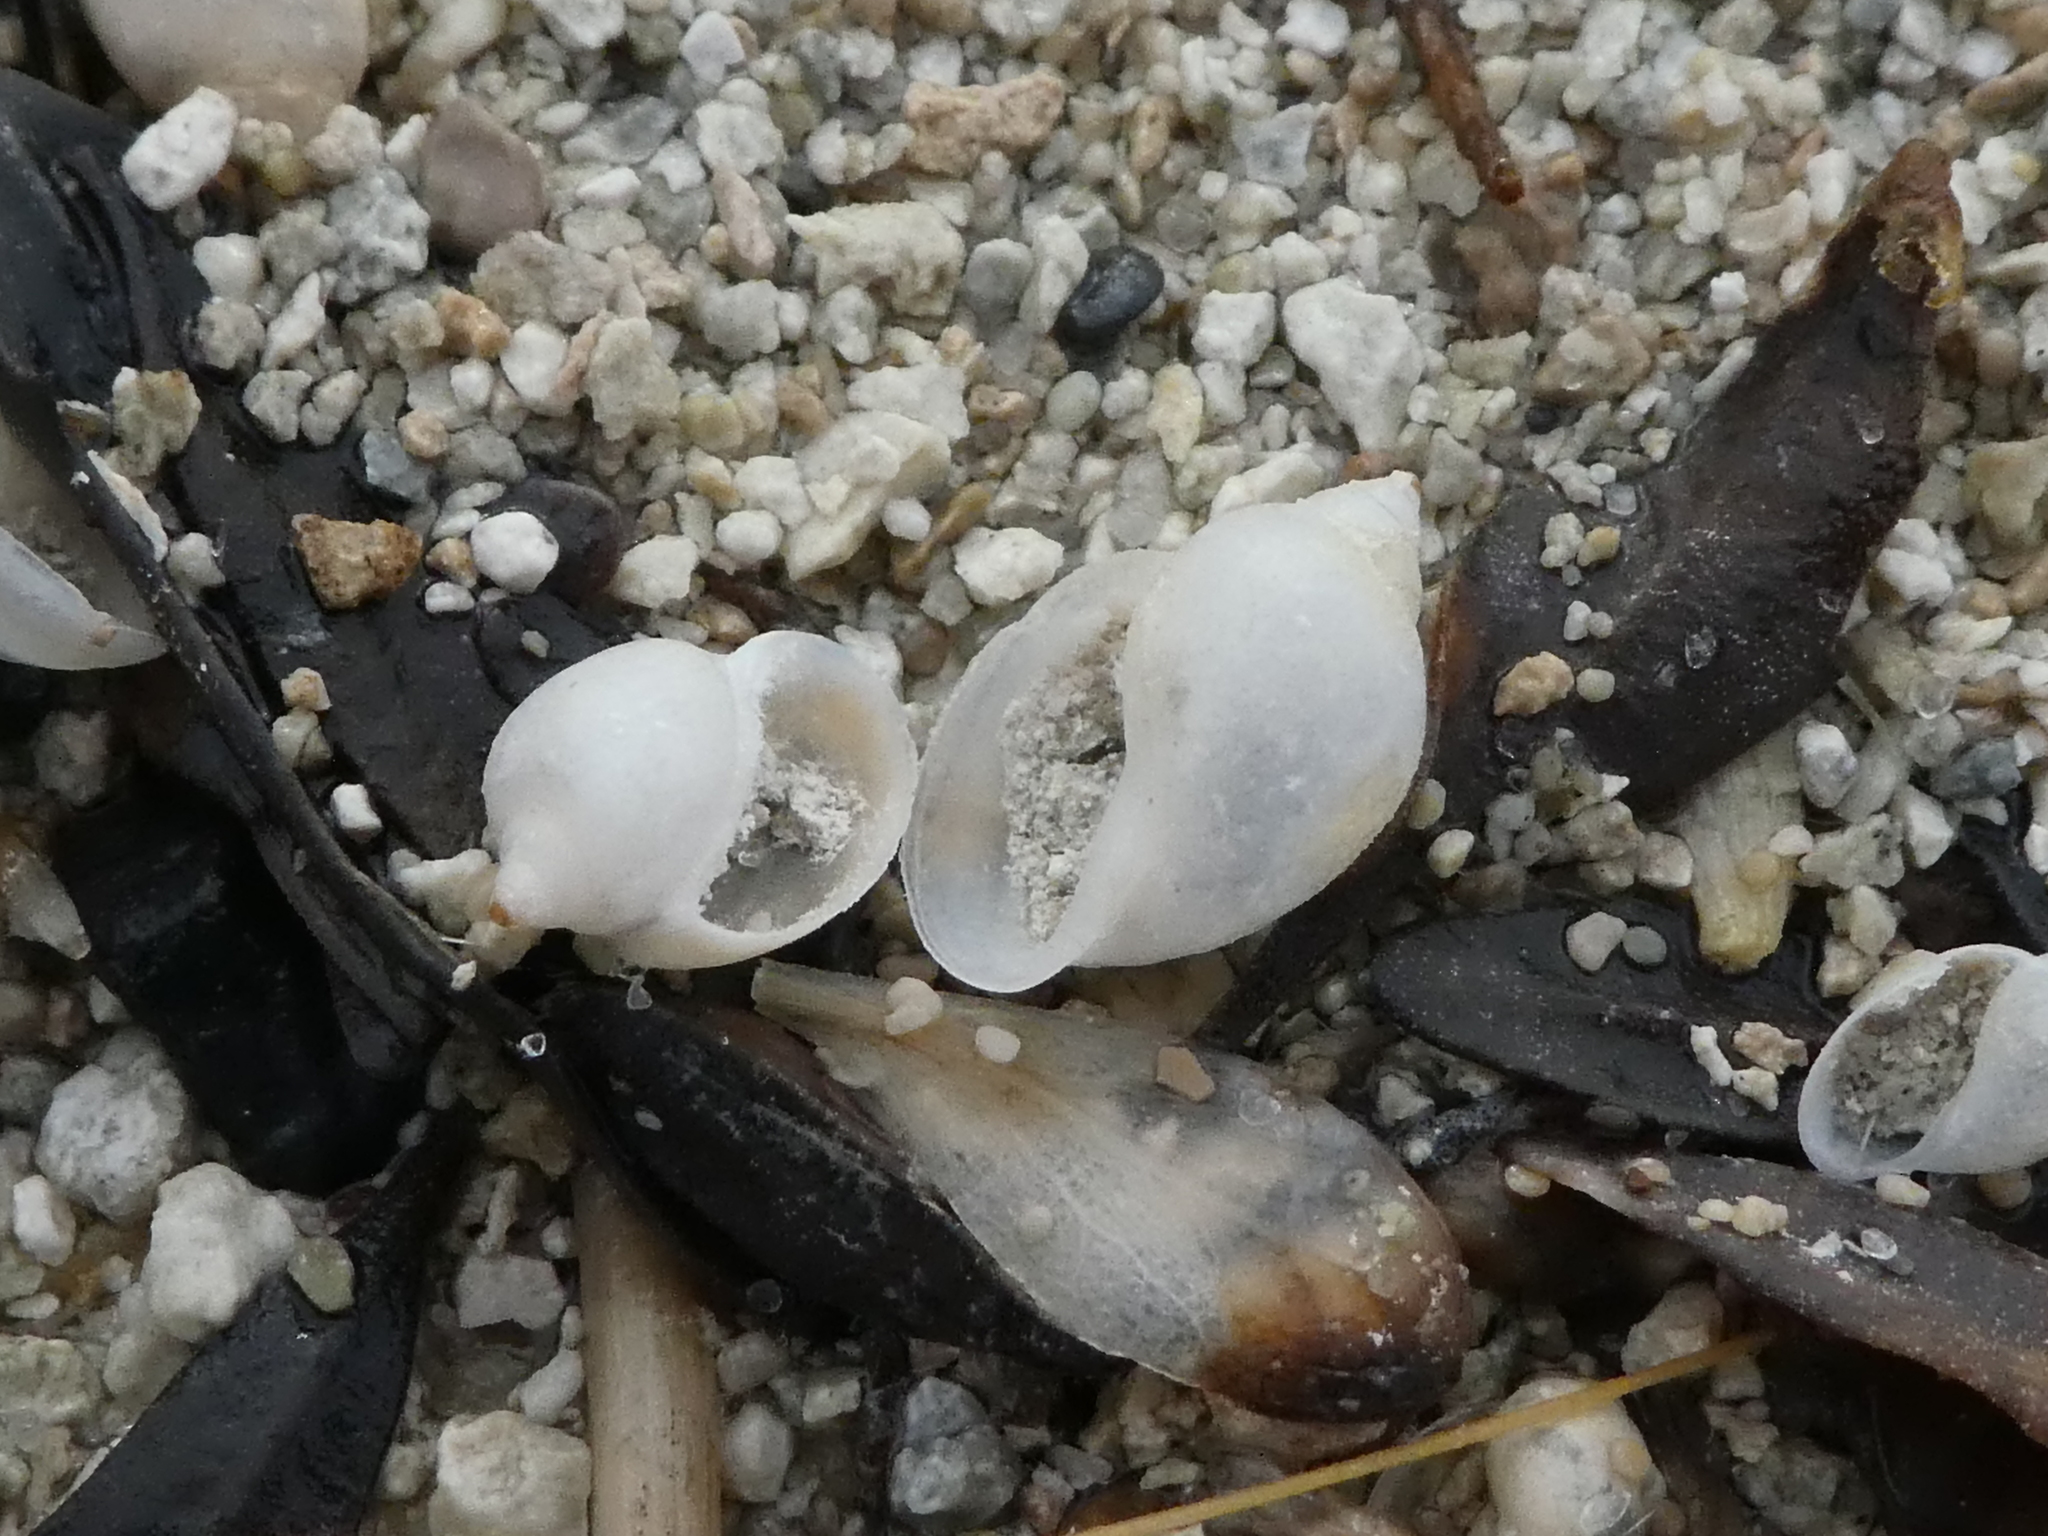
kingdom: Animalia
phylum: Mollusca
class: Gastropoda
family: Physidae
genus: Physella
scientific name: Physella acuta
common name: European physa
